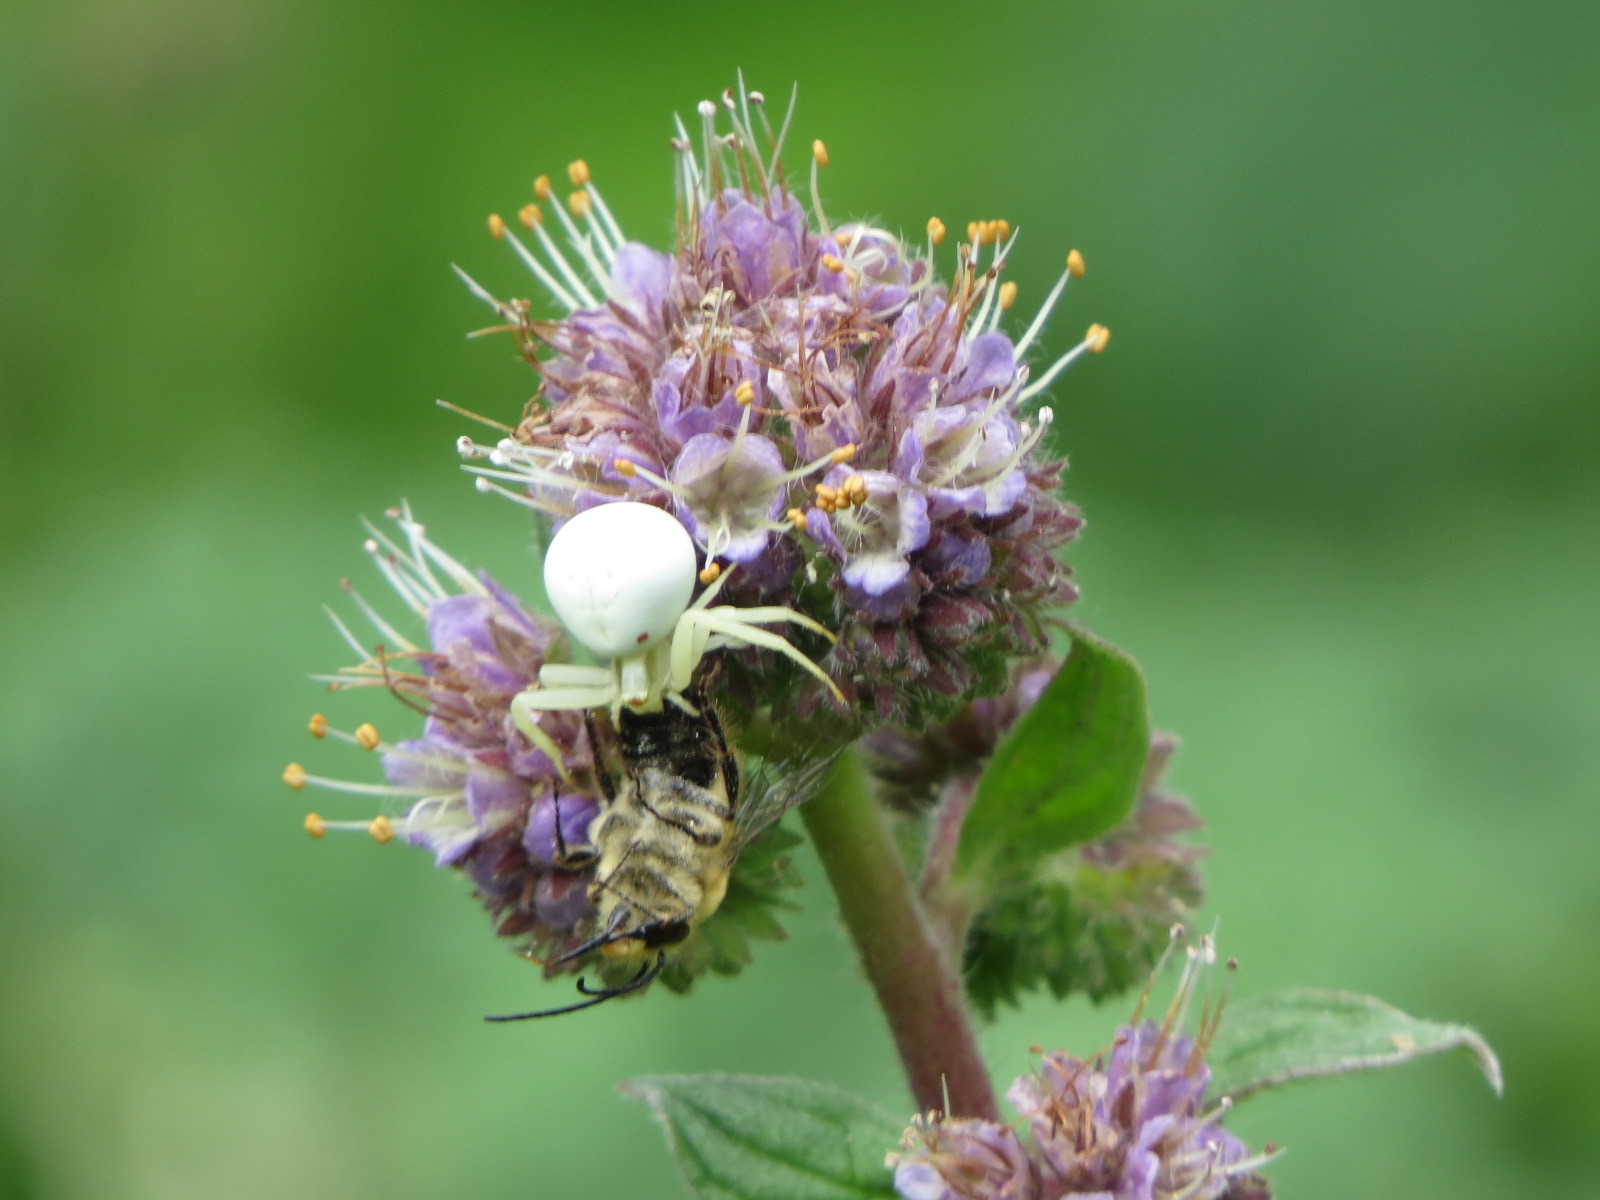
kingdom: Animalia
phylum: Arthropoda
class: Arachnida
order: Araneae
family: Thomisidae
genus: Misumena
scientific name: Misumena vatia
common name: Goldenrod crab spider
